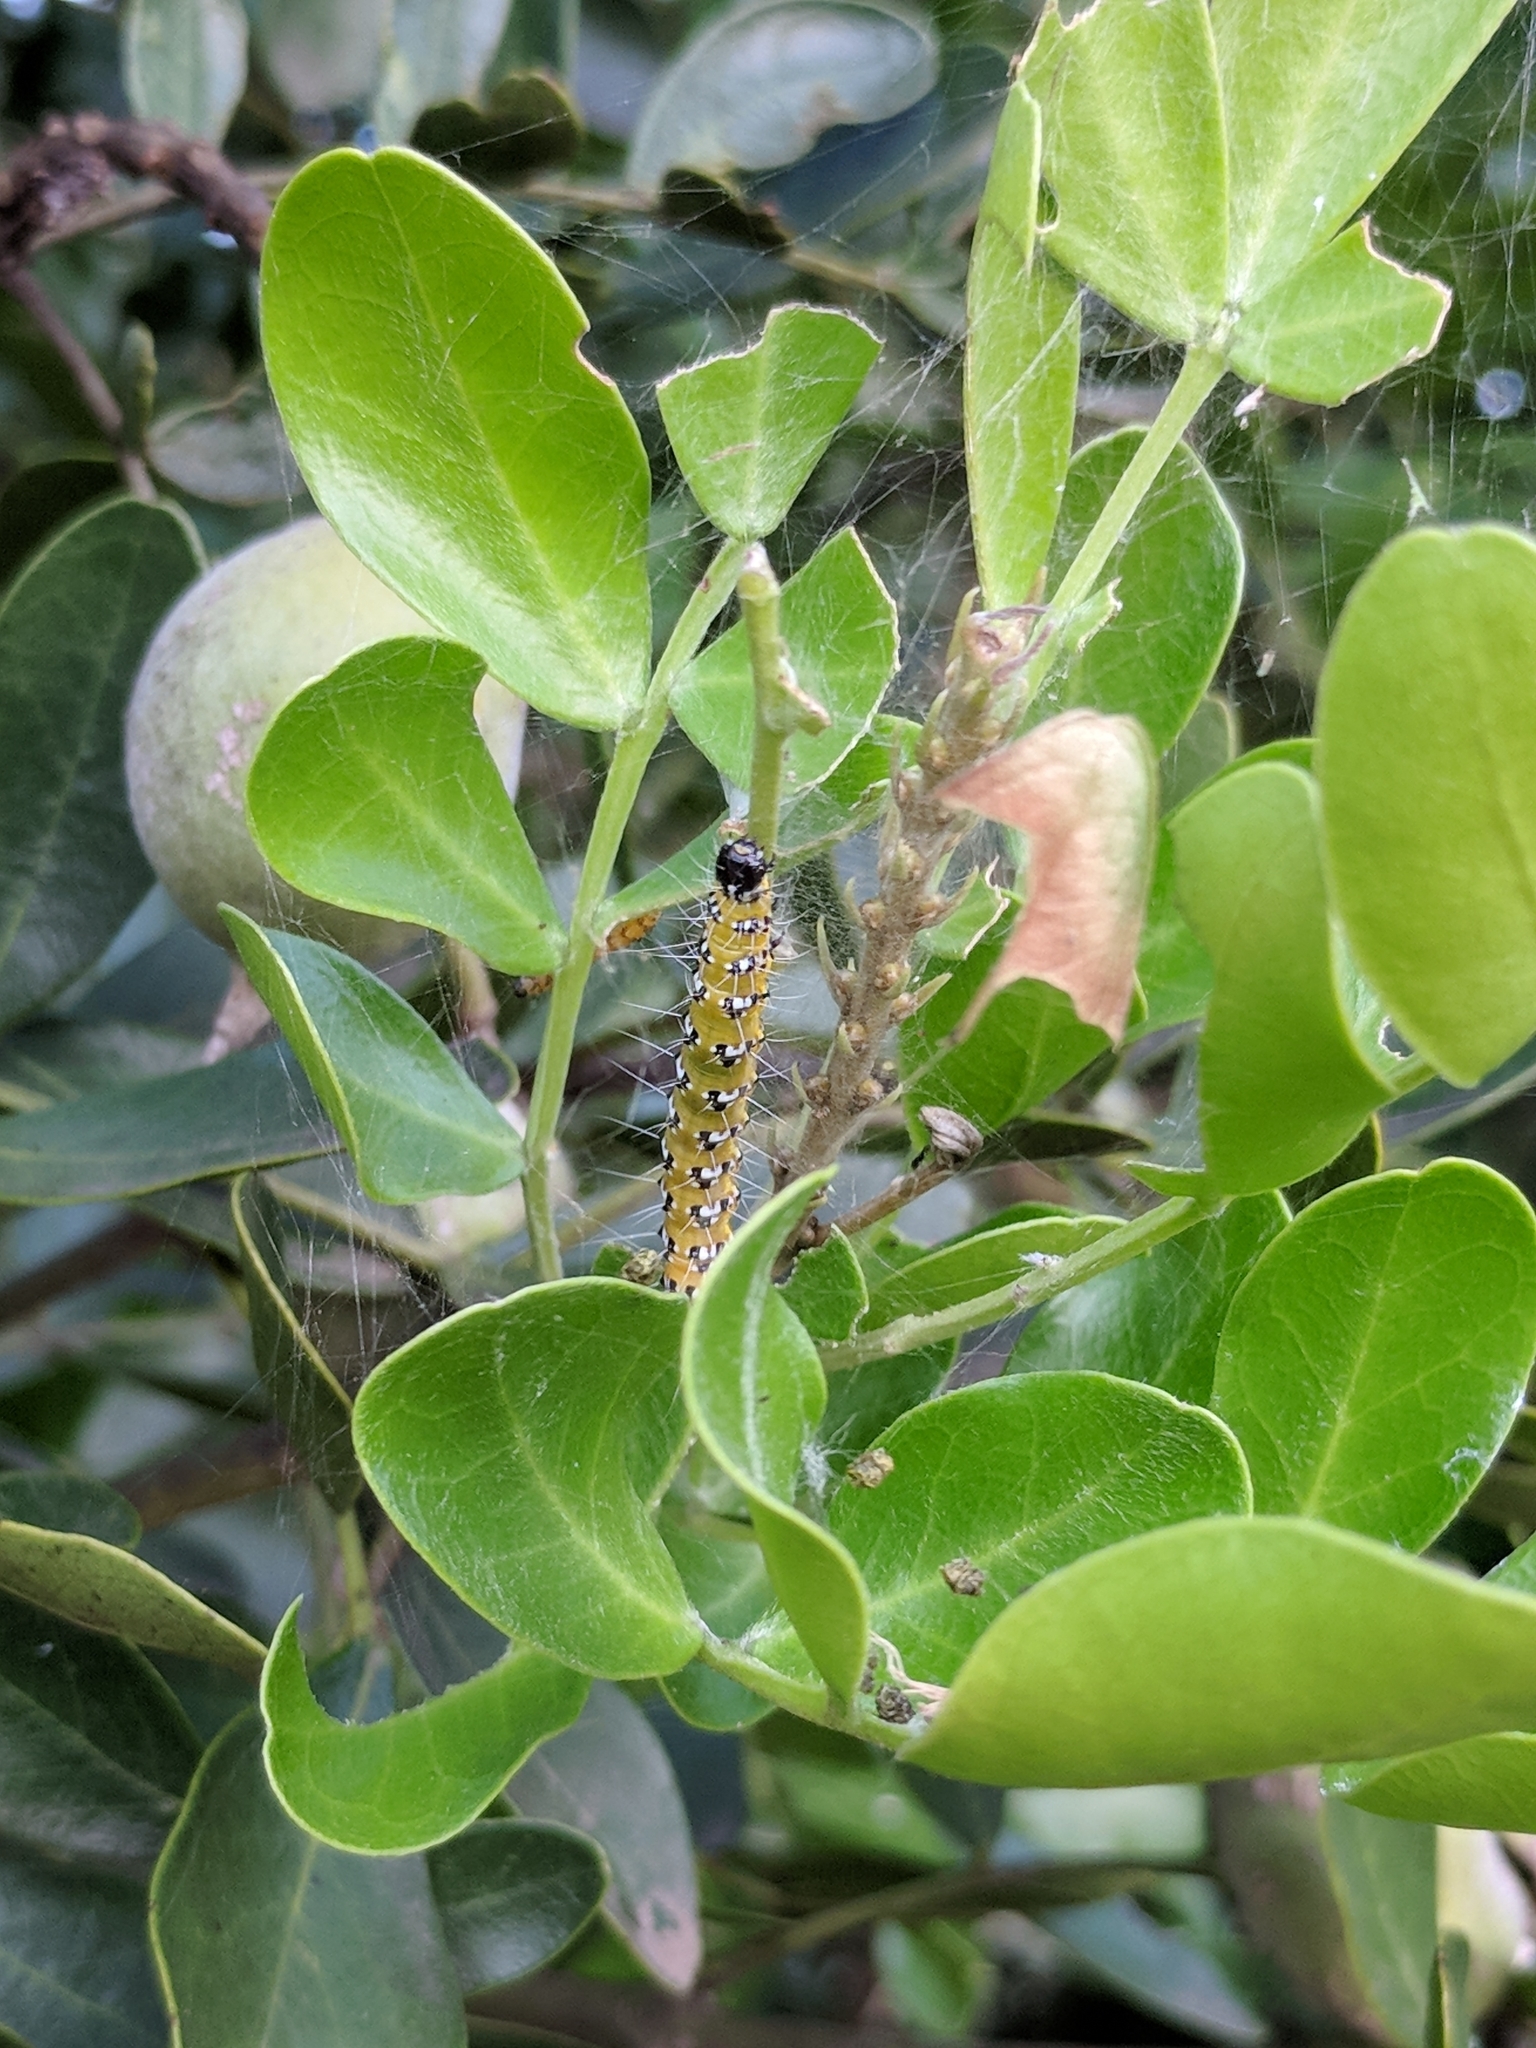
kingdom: Animalia
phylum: Arthropoda
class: Insecta
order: Lepidoptera
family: Crambidae
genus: Uresiphita
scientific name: Uresiphita reversalis
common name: Genista broom moth
